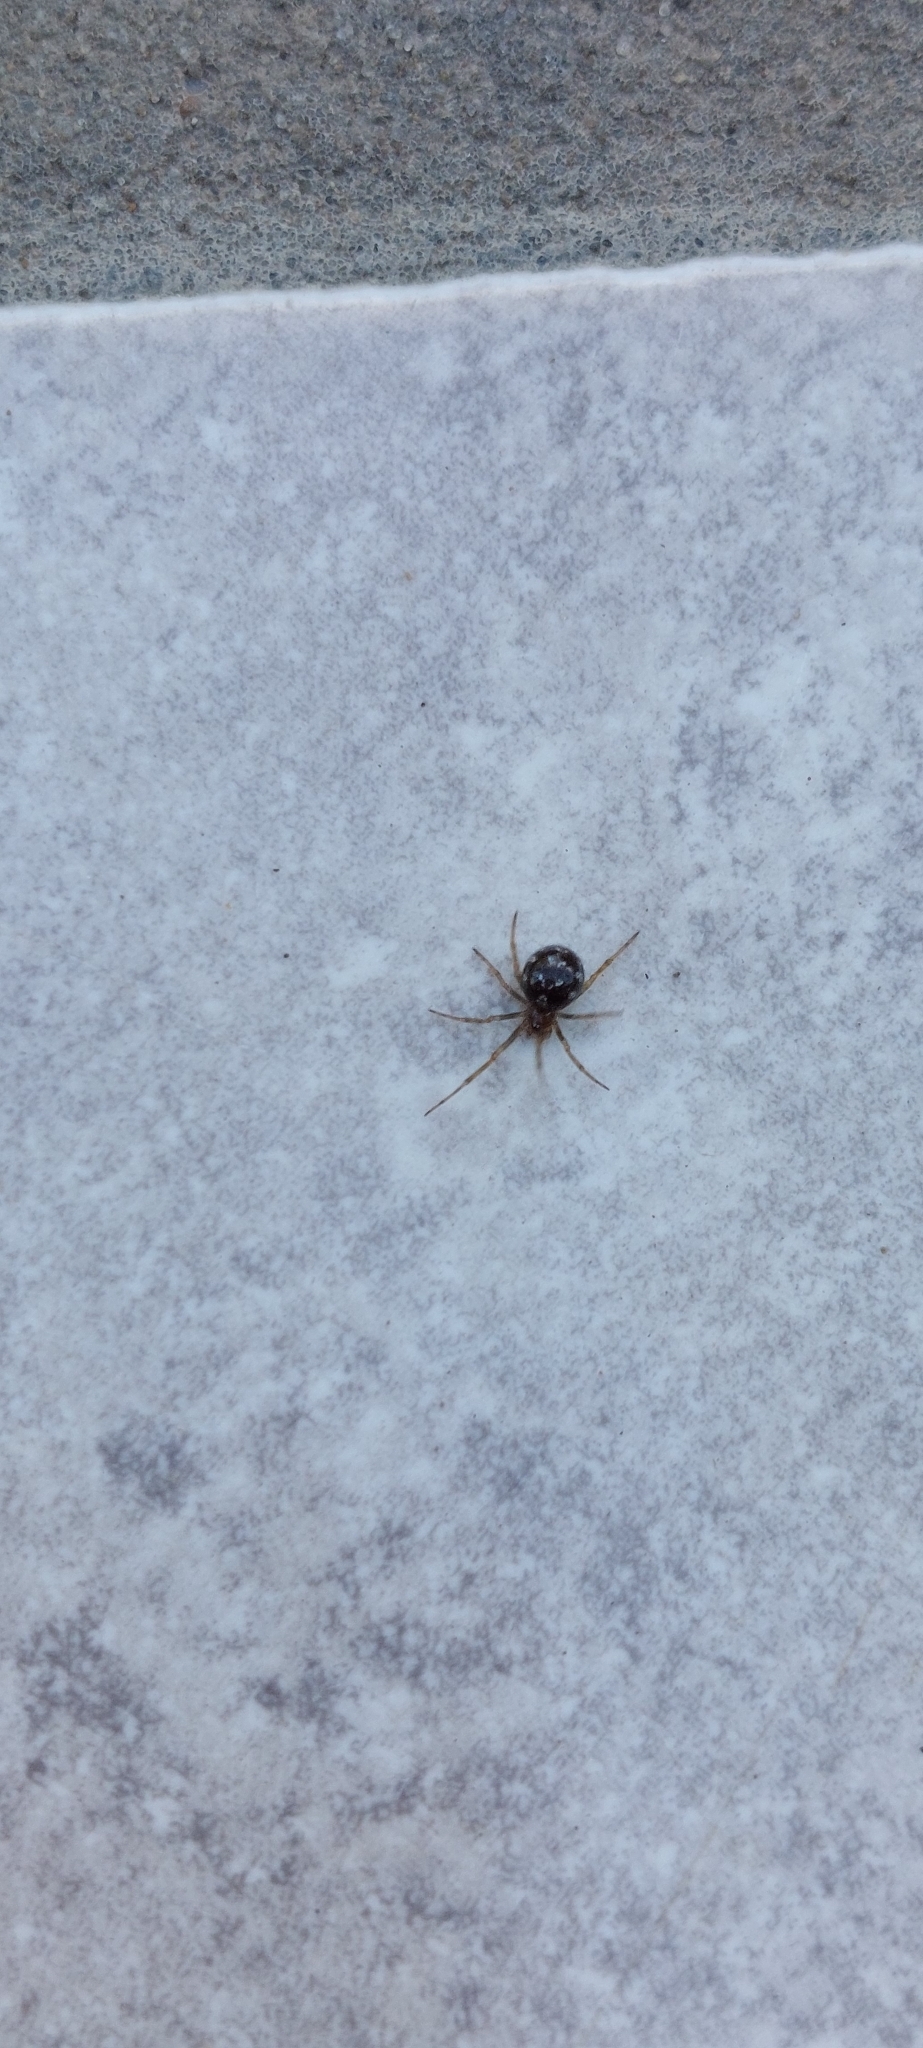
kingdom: Animalia
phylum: Arthropoda
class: Arachnida
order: Araneae
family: Theridiidae
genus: Steatoda
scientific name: Steatoda triangulosa
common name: Triangulate bud spider
